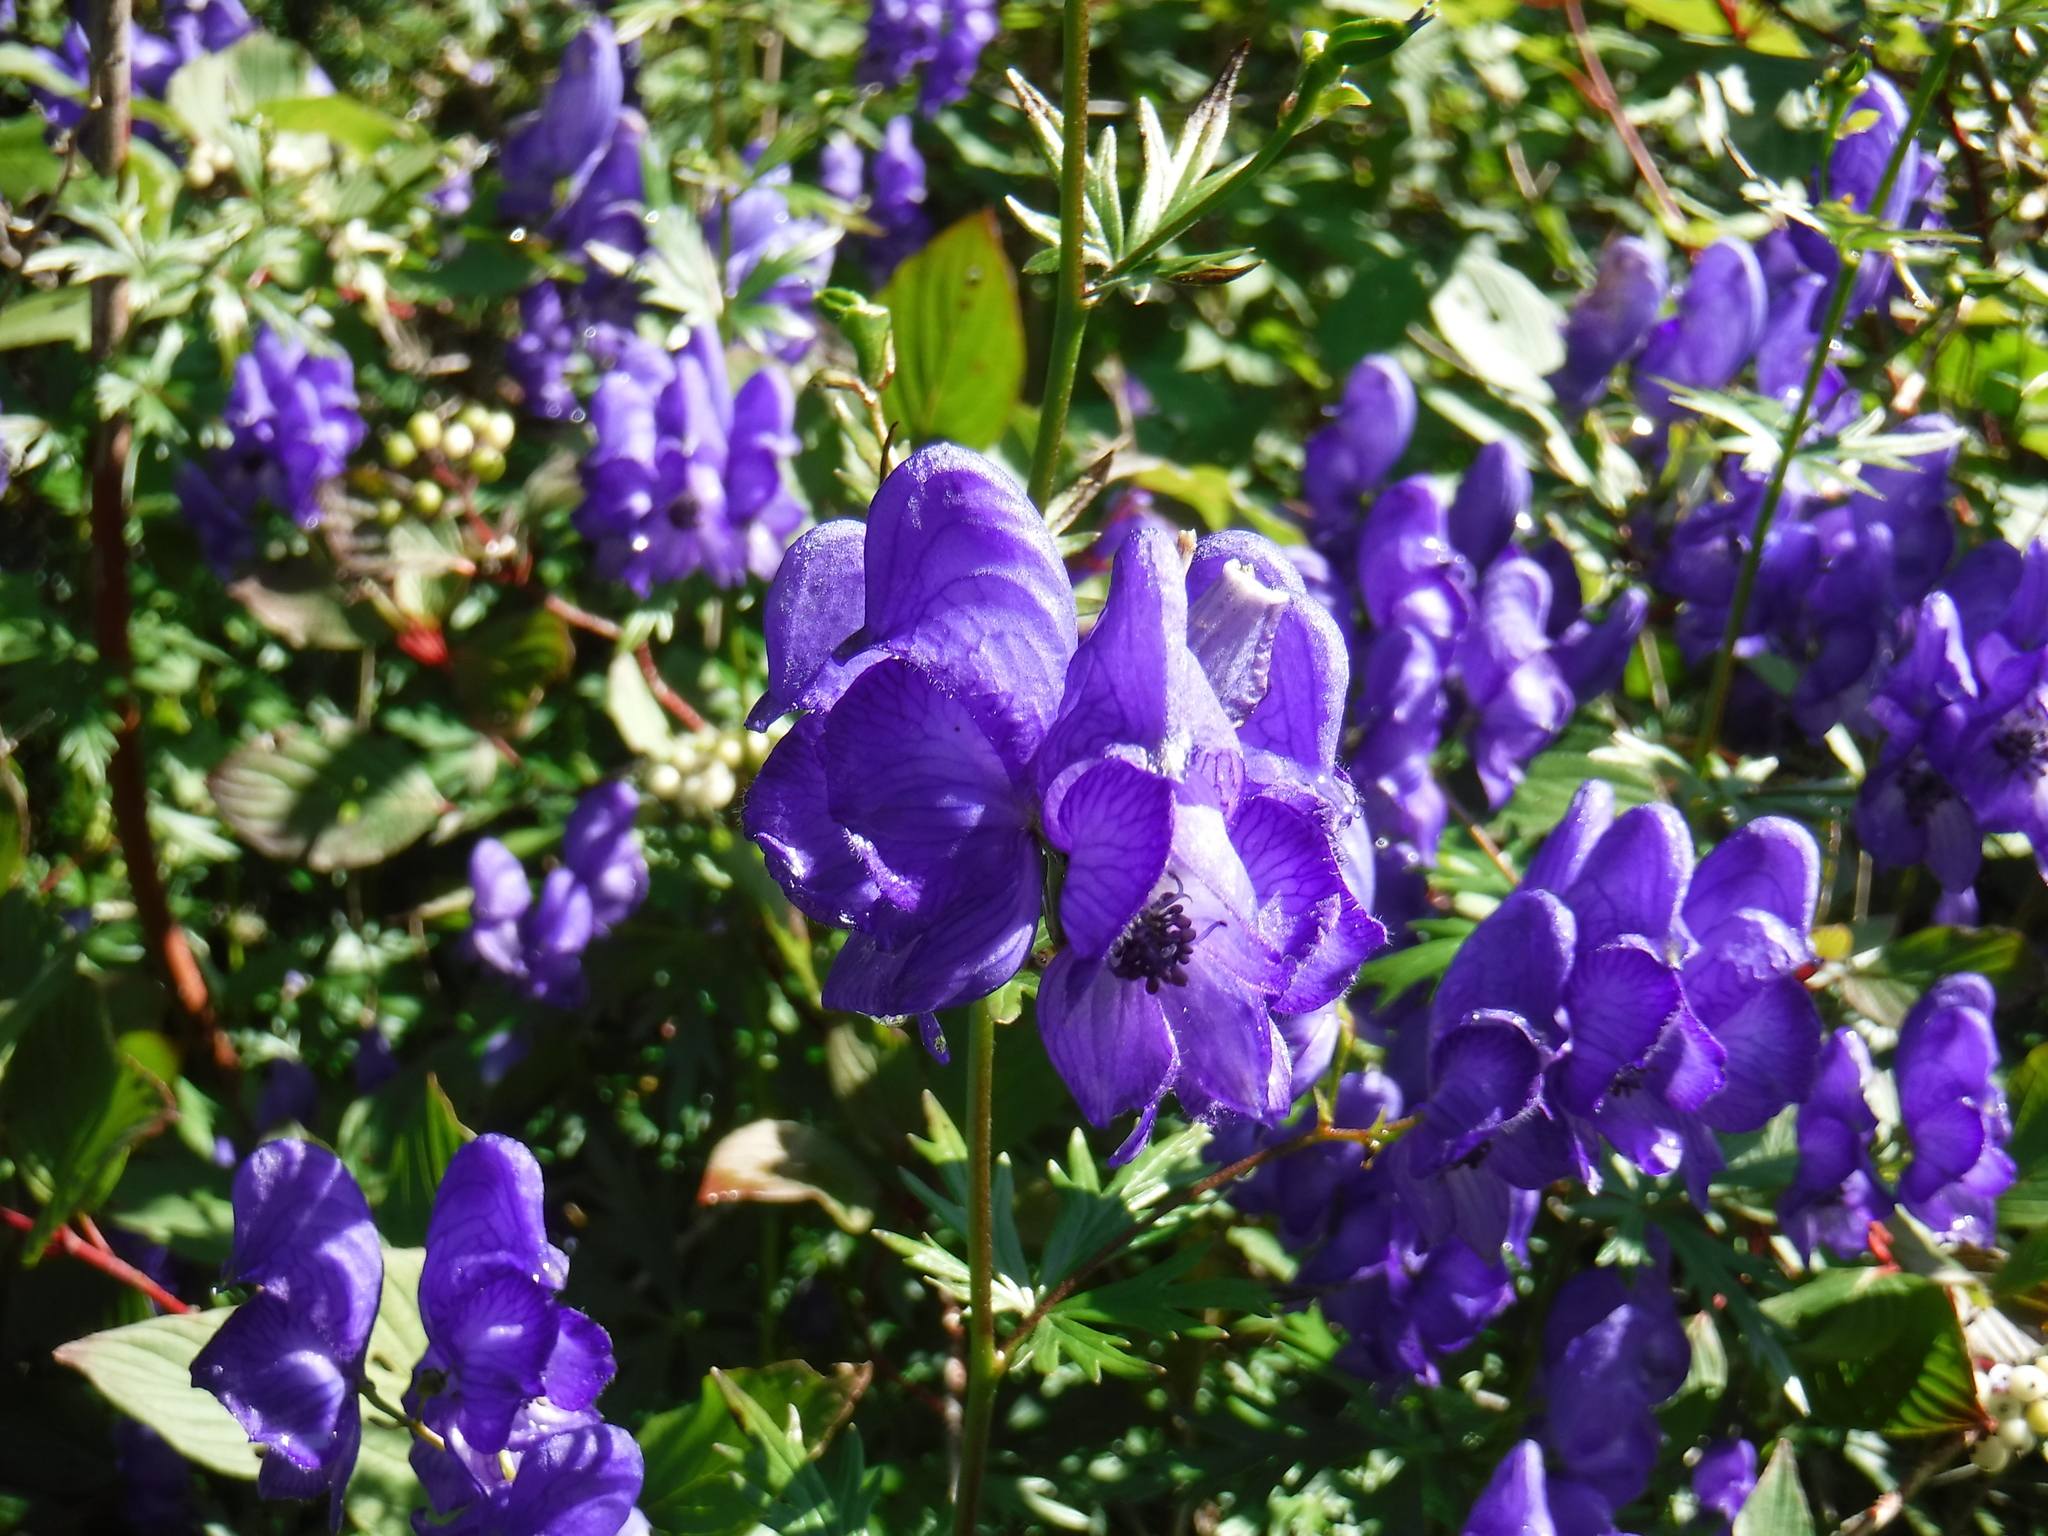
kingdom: Plantae
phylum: Tracheophyta
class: Magnoliopsida
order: Ranunculales
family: Ranunculaceae
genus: Aconitum
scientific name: Aconitum napellus
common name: Garden monkshood
